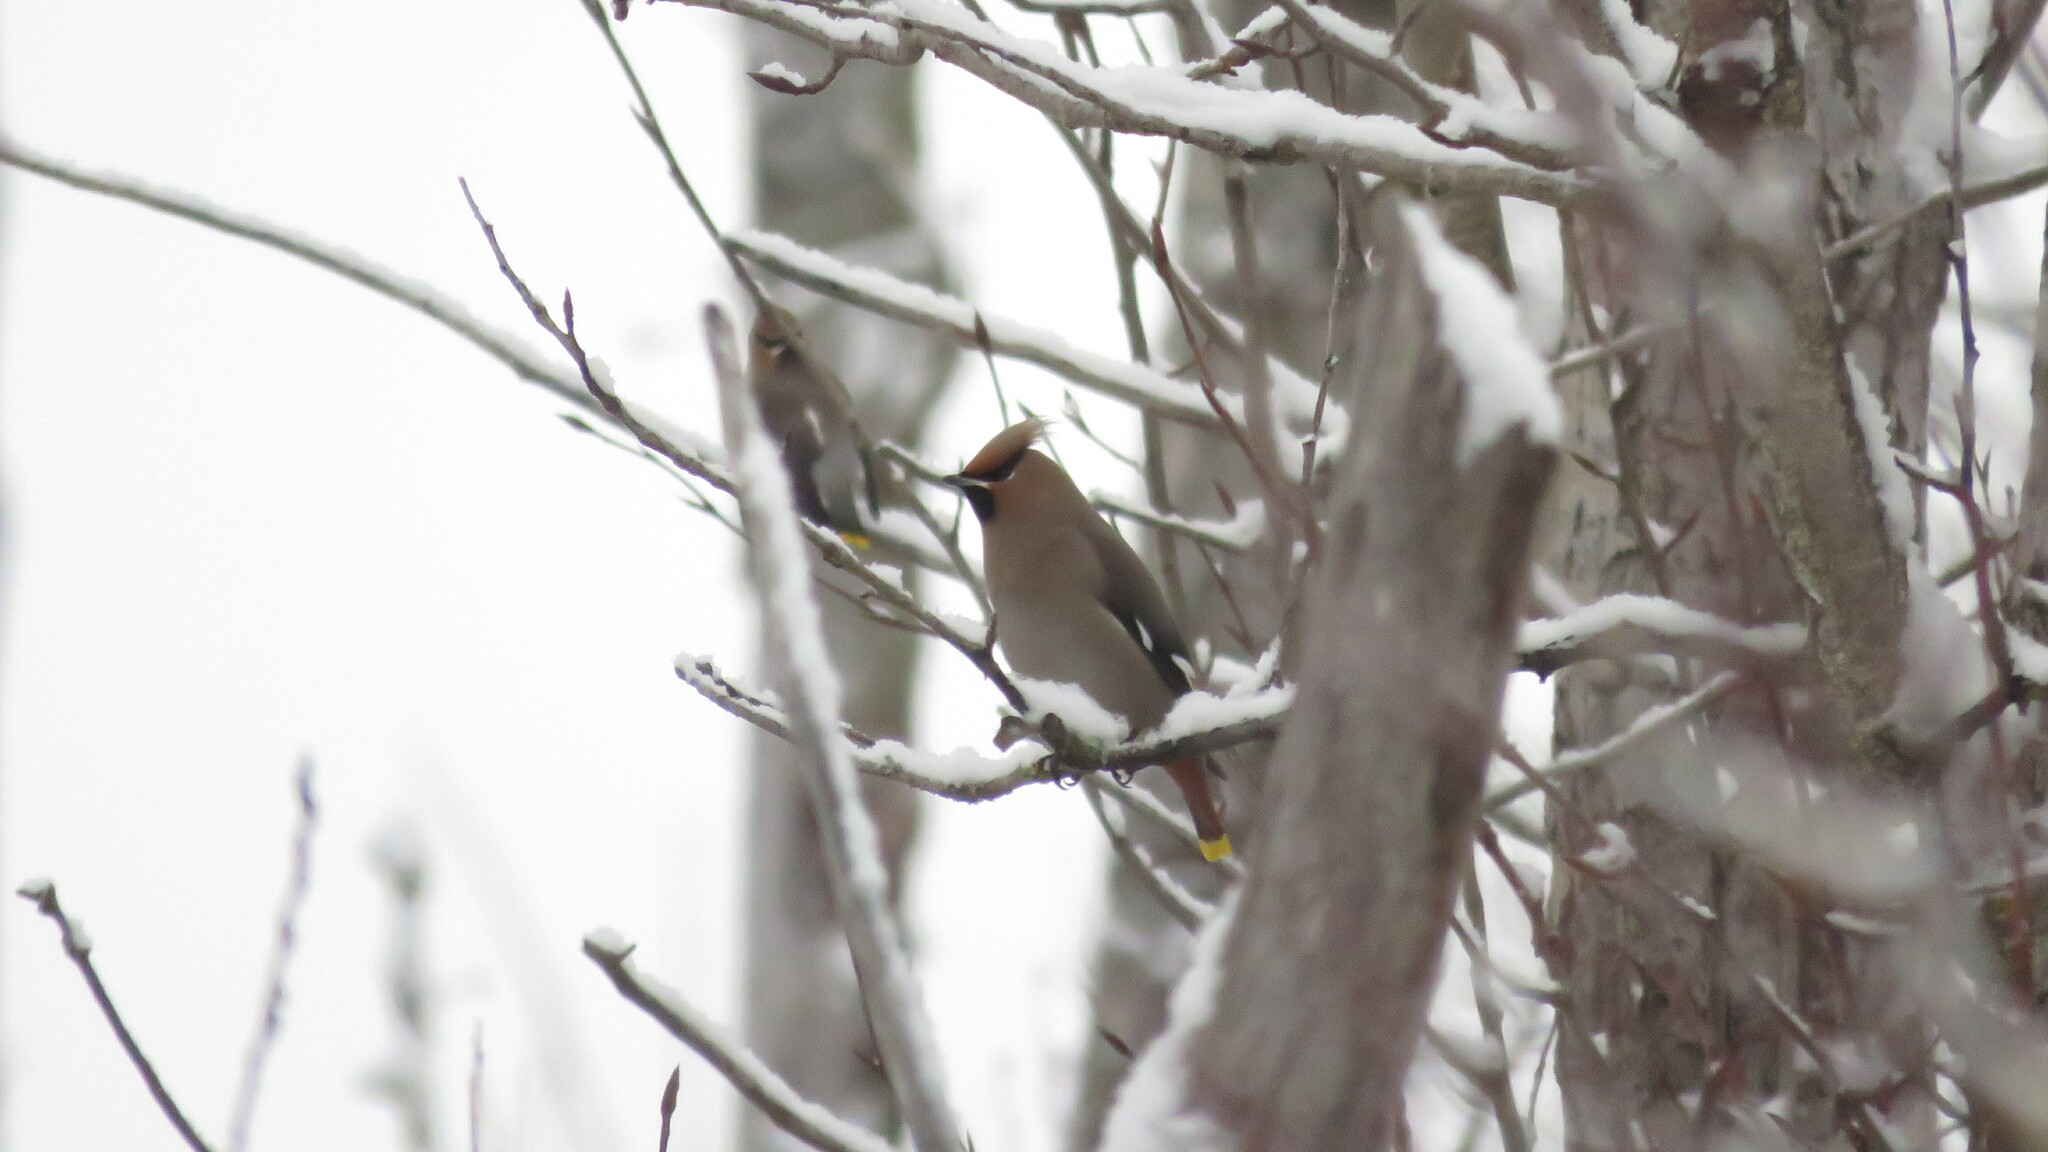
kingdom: Animalia
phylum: Chordata
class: Aves
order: Passeriformes
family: Bombycillidae
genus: Bombycilla
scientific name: Bombycilla garrulus
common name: Bohemian waxwing
